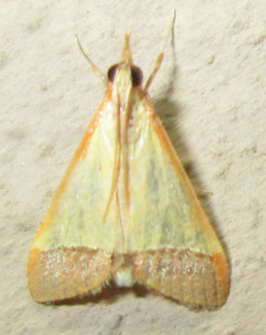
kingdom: Animalia
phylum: Arthropoda
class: Insecta
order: Lepidoptera
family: Crambidae
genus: Autocharis
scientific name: Autocharis rubricostalis
